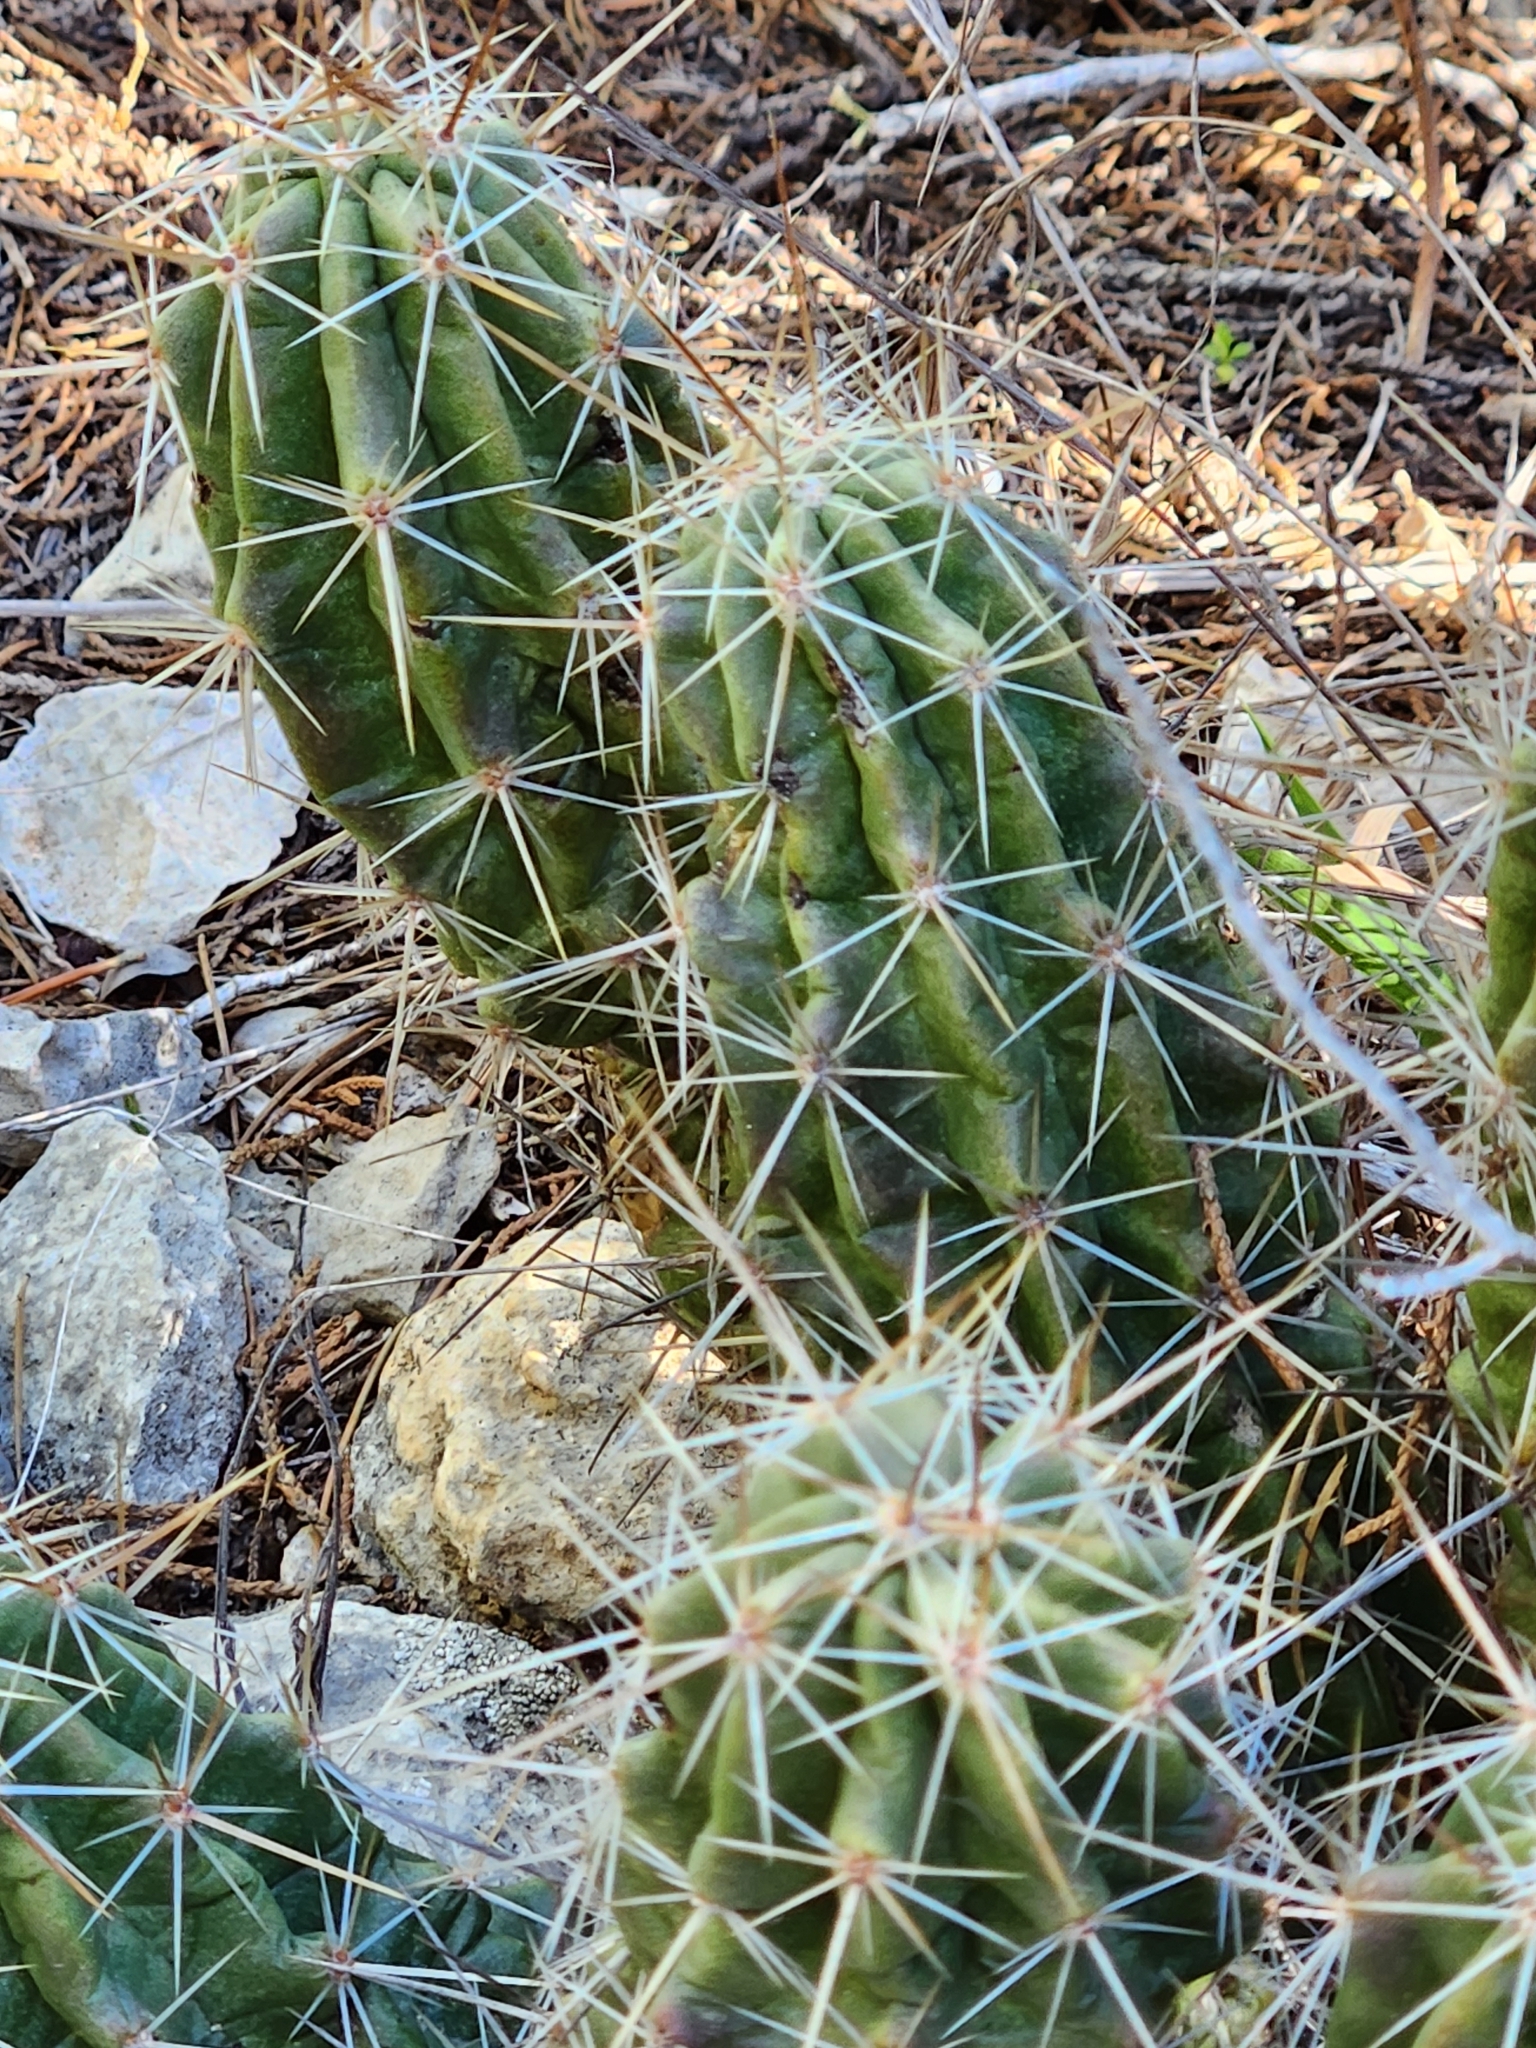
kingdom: Plantae
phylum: Tracheophyta
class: Magnoliopsida
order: Caryophyllales
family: Cactaceae
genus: Echinocereus
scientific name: Echinocereus enneacanthus
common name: Pitaya
